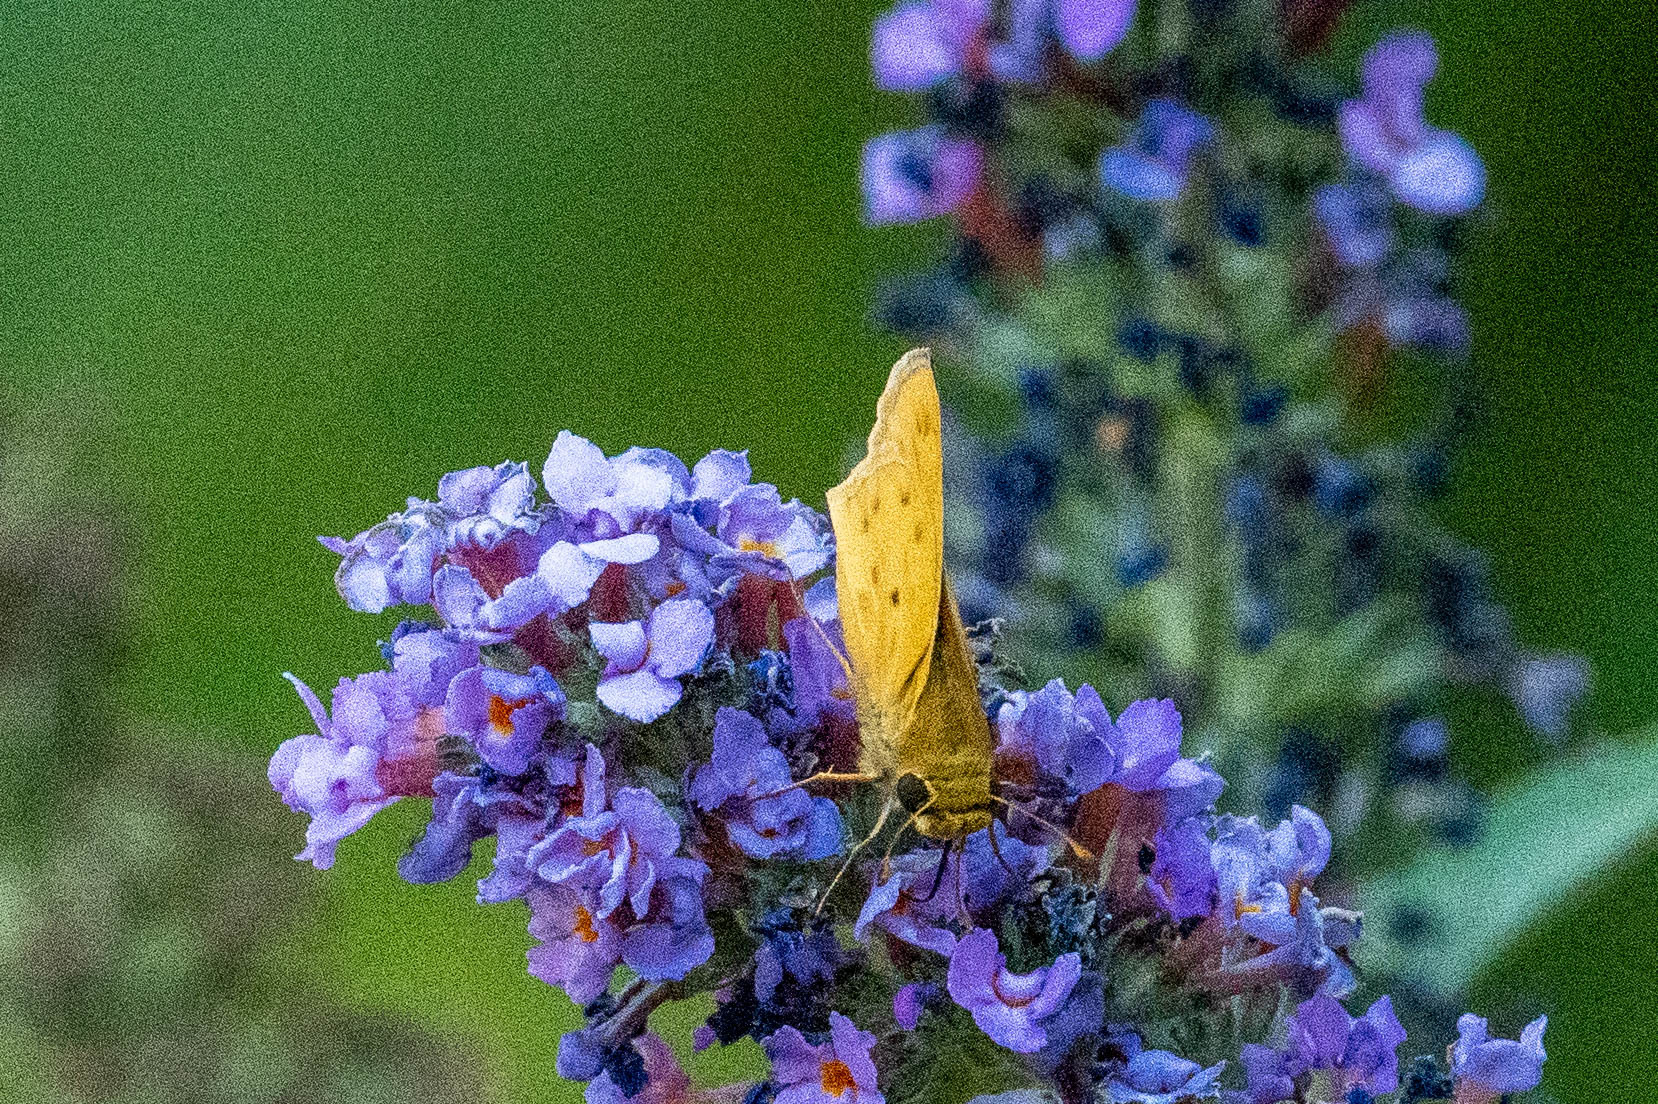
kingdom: Animalia
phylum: Arthropoda
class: Insecta
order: Lepidoptera
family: Hesperiidae
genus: Hylephila
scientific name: Hylephila phyleus
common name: Fiery skipper
